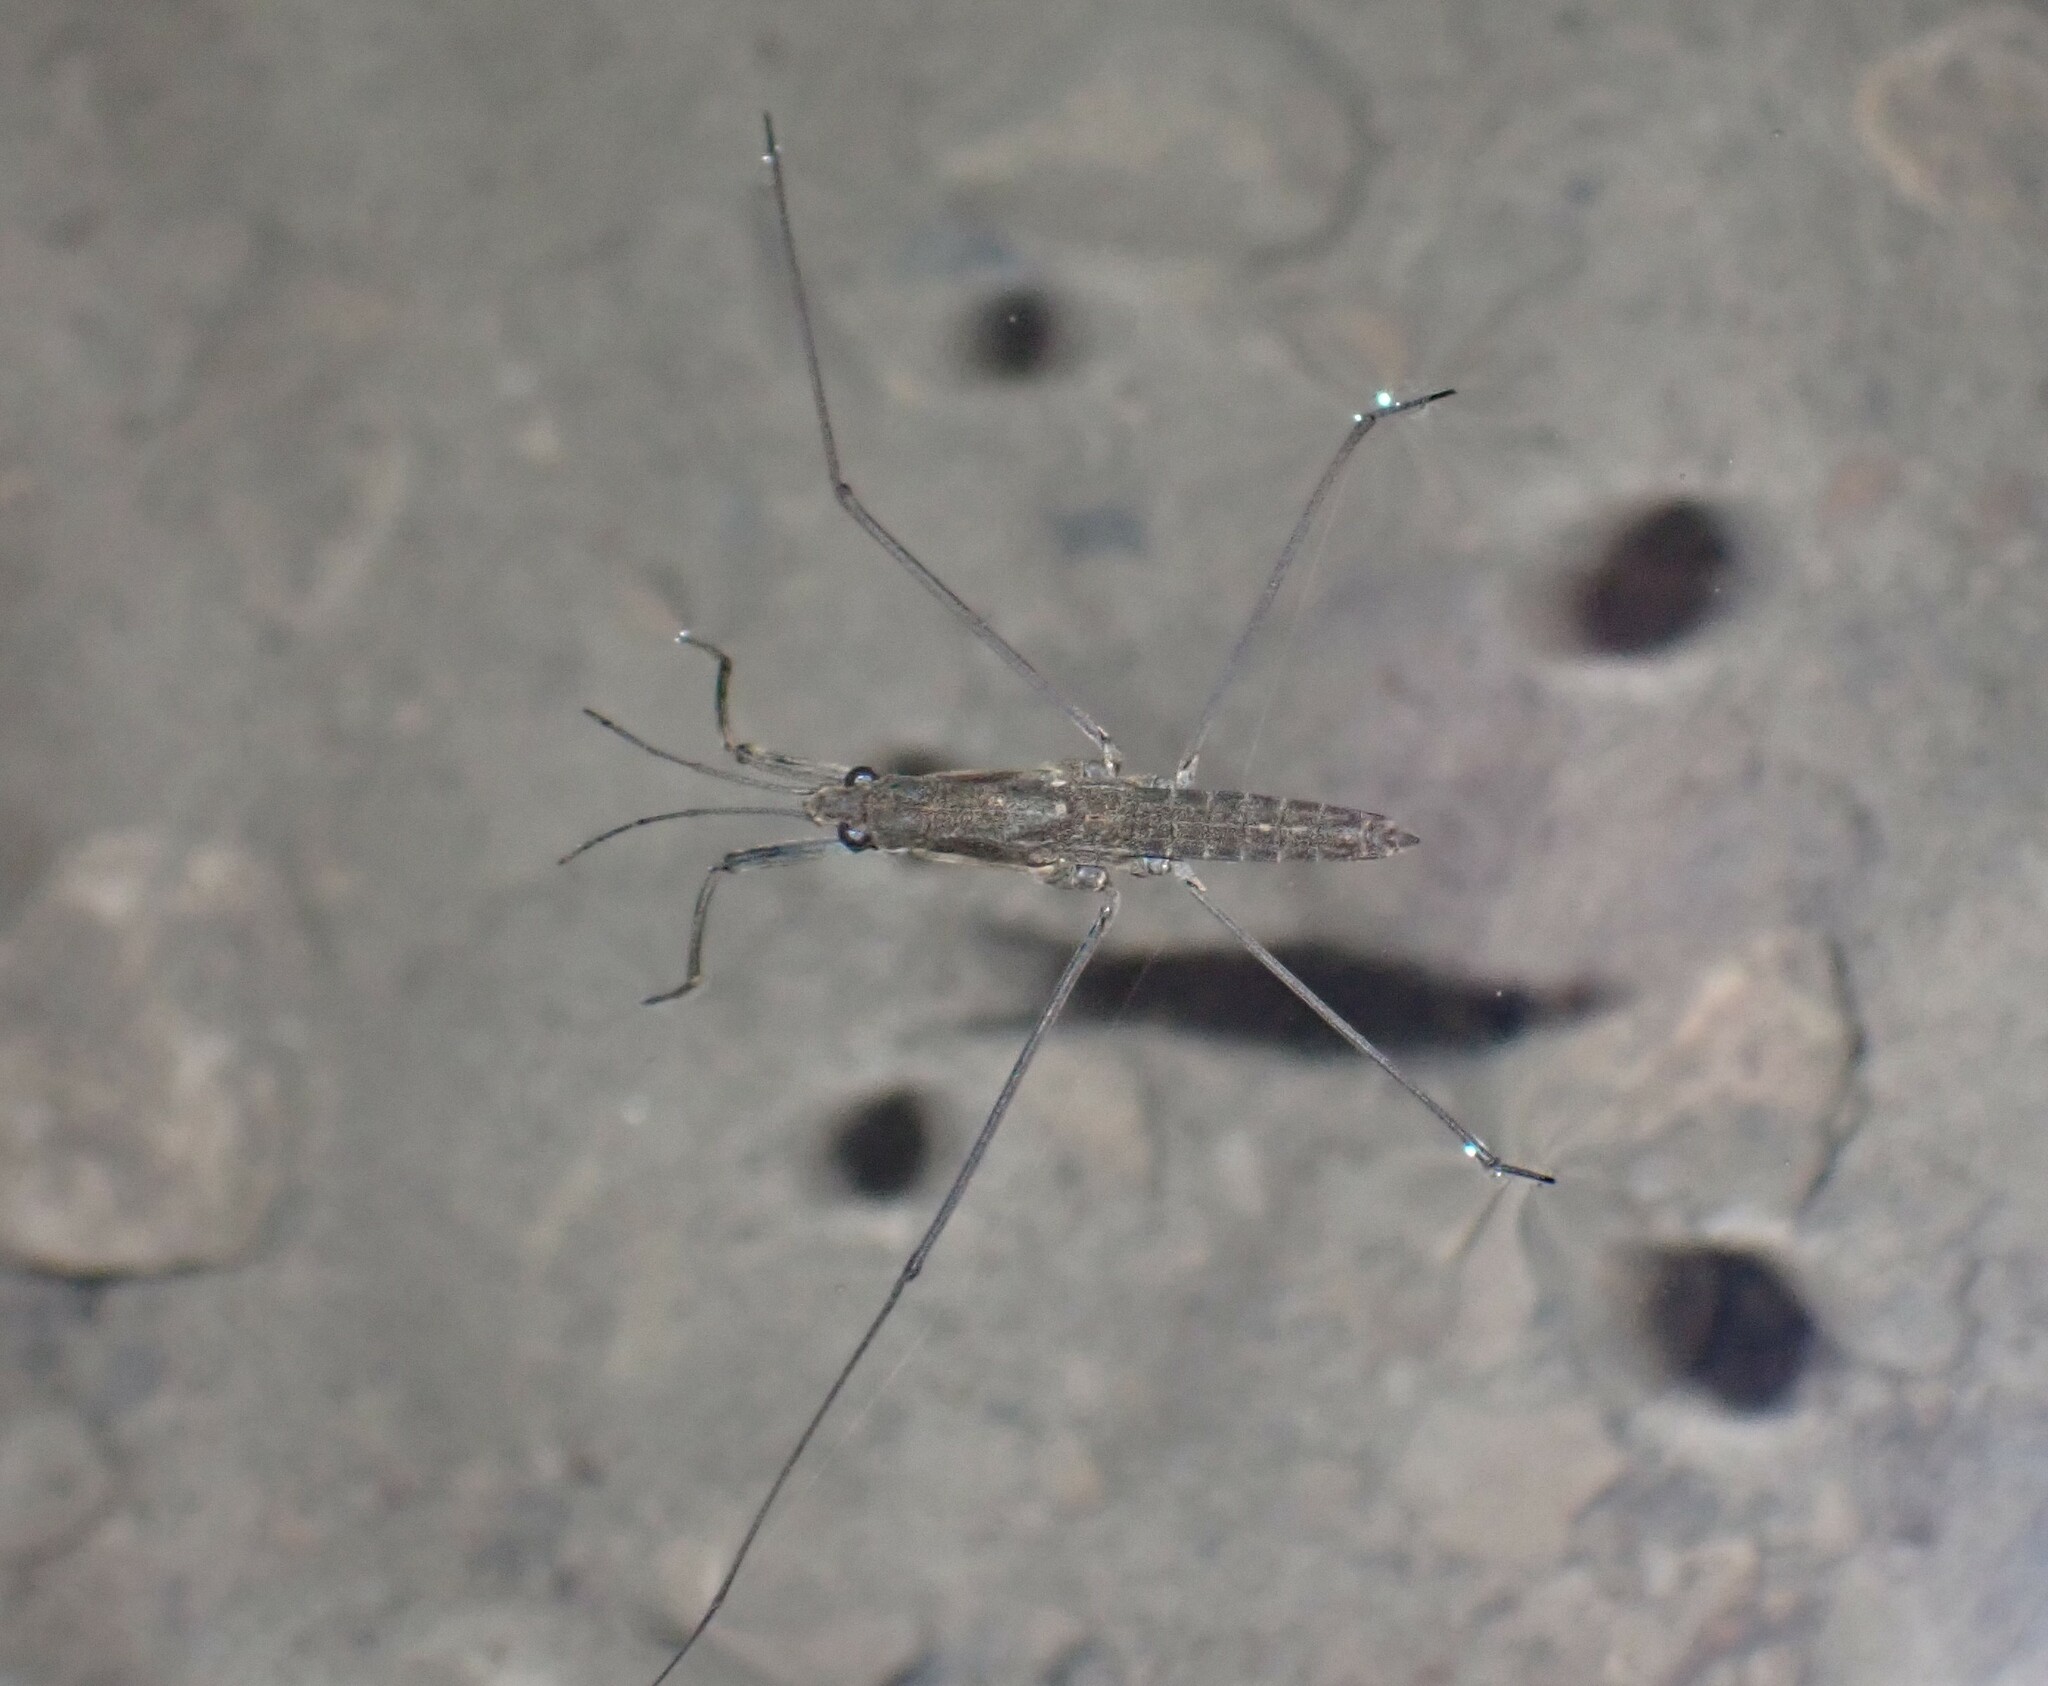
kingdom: Animalia
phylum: Arthropoda
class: Insecta
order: Hemiptera
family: Gerridae
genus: Aquarius
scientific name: Aquarius najas
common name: River skater
